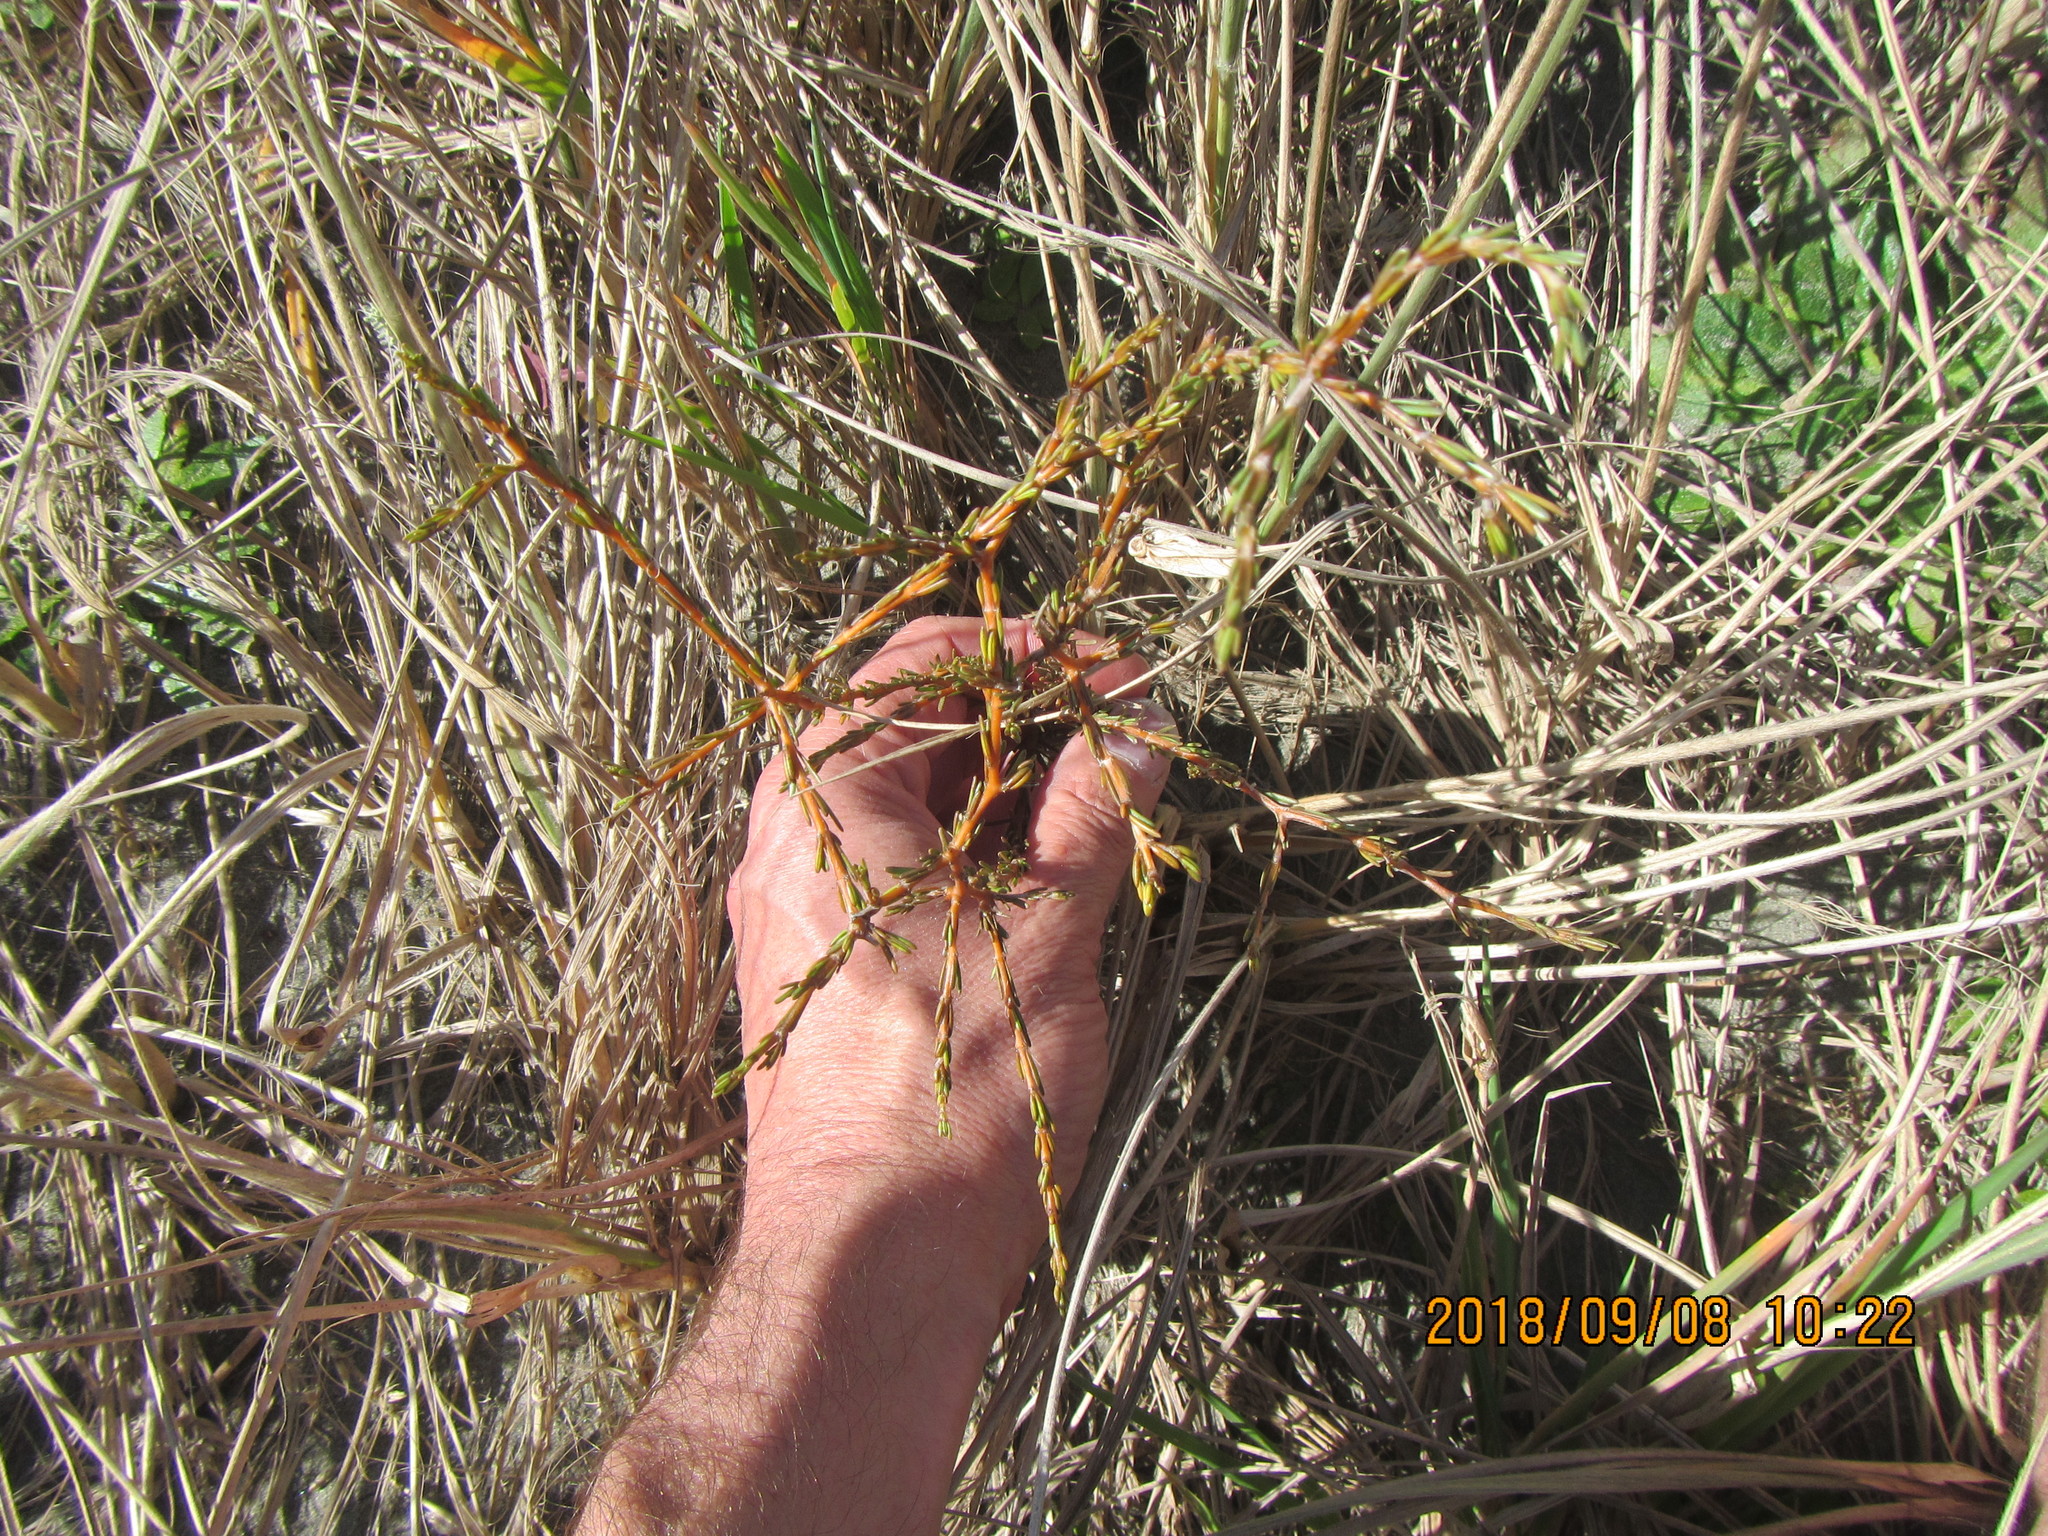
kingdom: Plantae
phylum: Tracheophyta
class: Magnoliopsida
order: Gentianales
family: Rubiaceae
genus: Coprosma
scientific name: Coprosma acerosa
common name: Sand coprosma
